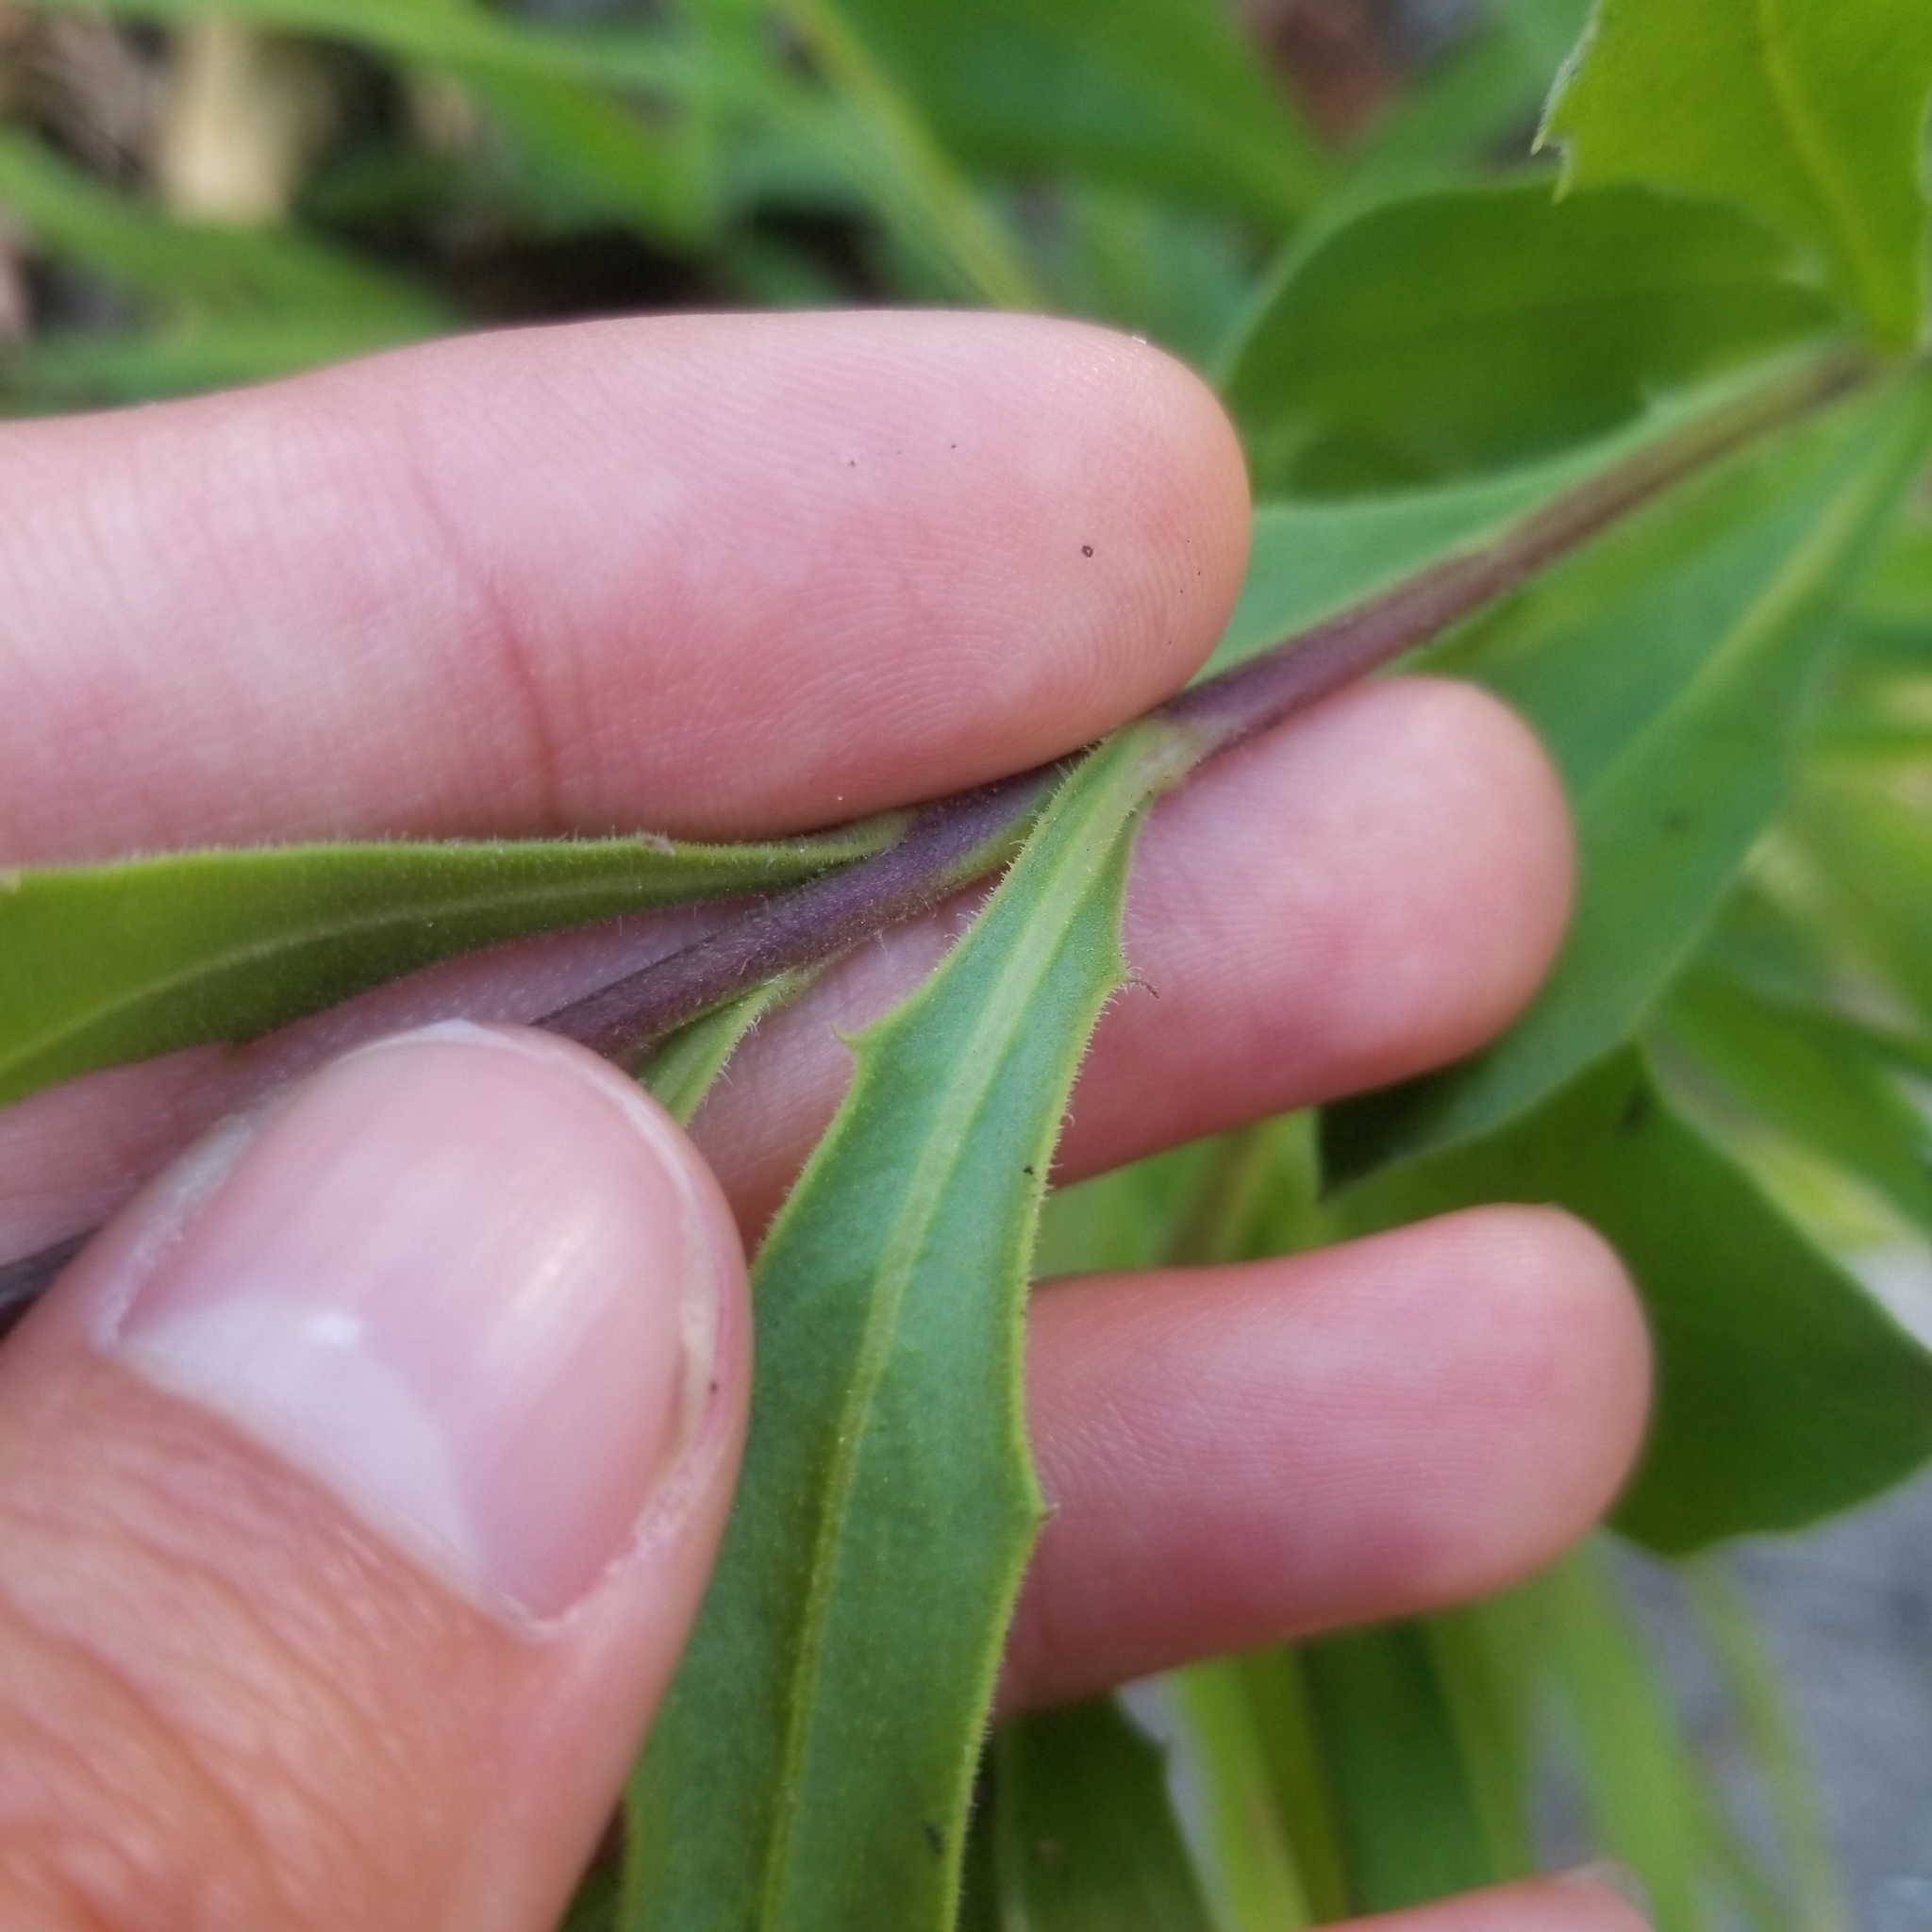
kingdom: Plantae
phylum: Tracheophyta
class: Magnoliopsida
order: Asterales
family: Asteraceae
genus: Dimorphotheca
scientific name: Dimorphotheca ecklonis
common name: Vanstaden's river daisy
